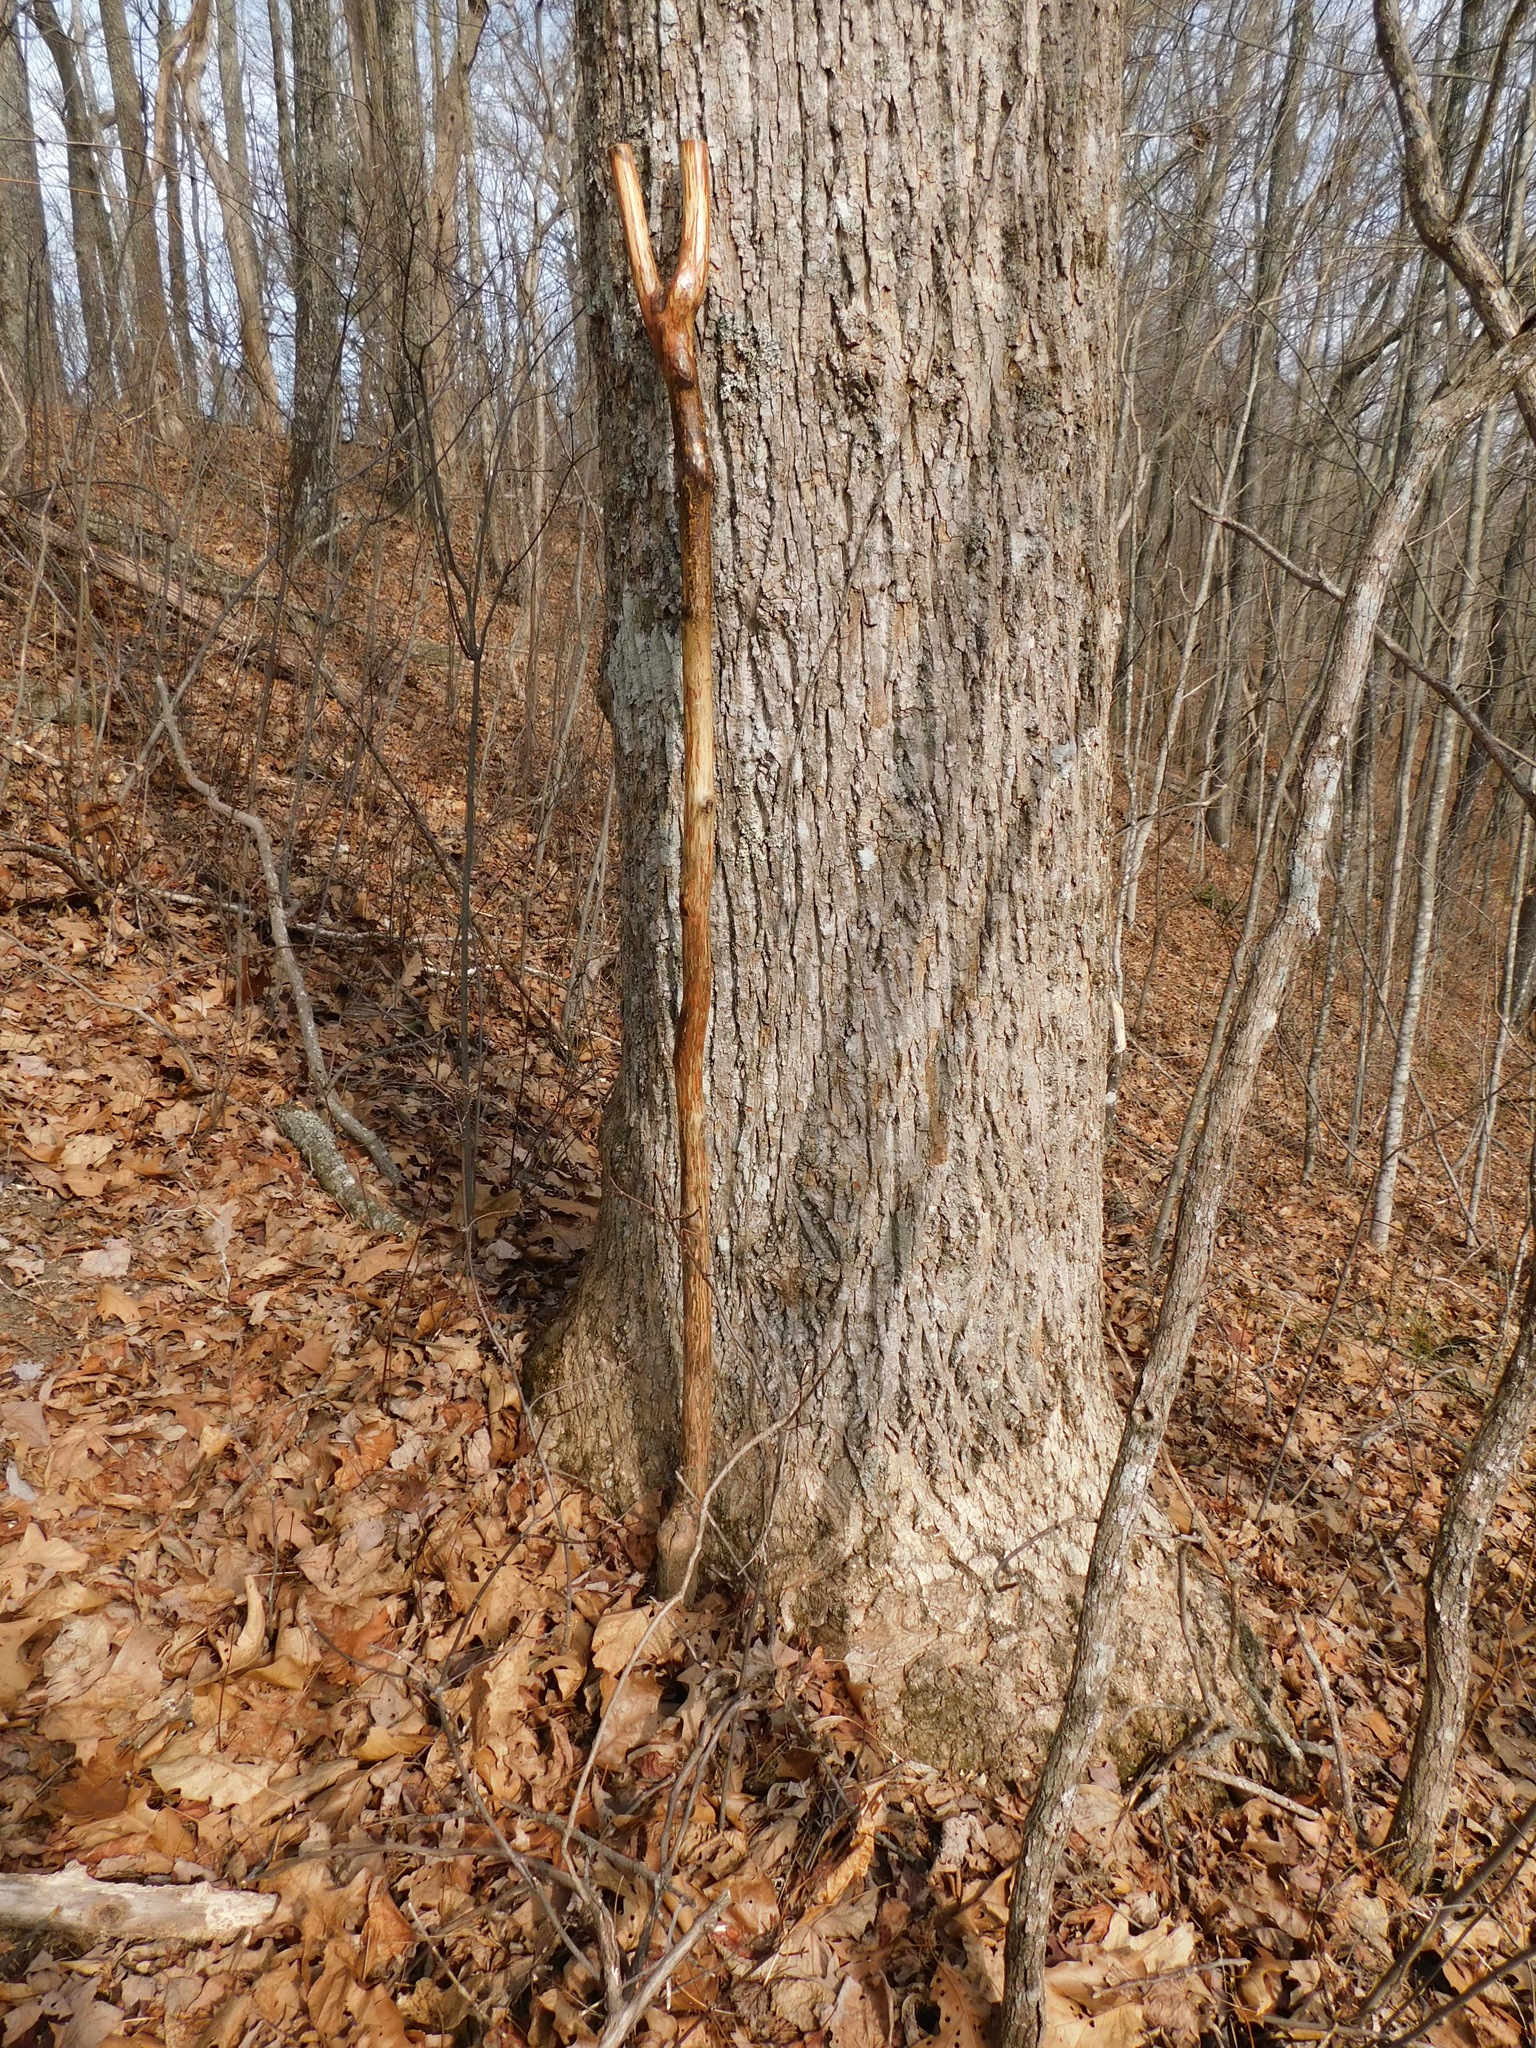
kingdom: Plantae
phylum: Tracheophyta
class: Magnoliopsida
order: Magnoliales
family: Magnoliaceae
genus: Liriodendron
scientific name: Liriodendron tulipifera
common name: Tulip tree
